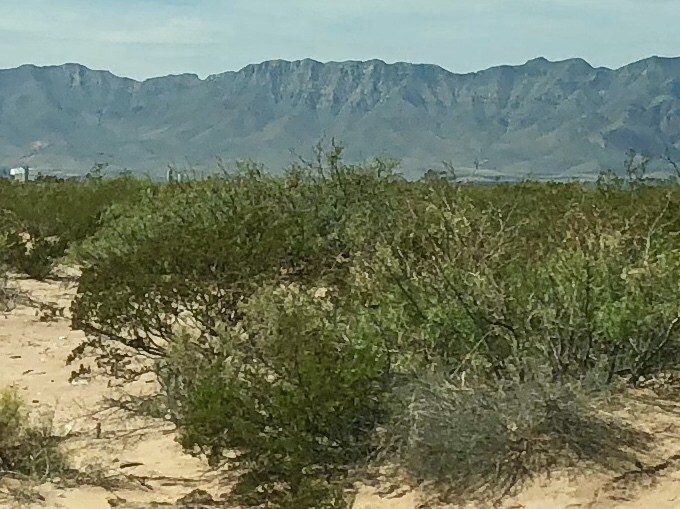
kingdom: Plantae
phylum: Tracheophyta
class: Magnoliopsida
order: Zygophyllales
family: Zygophyllaceae
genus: Larrea
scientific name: Larrea tridentata
